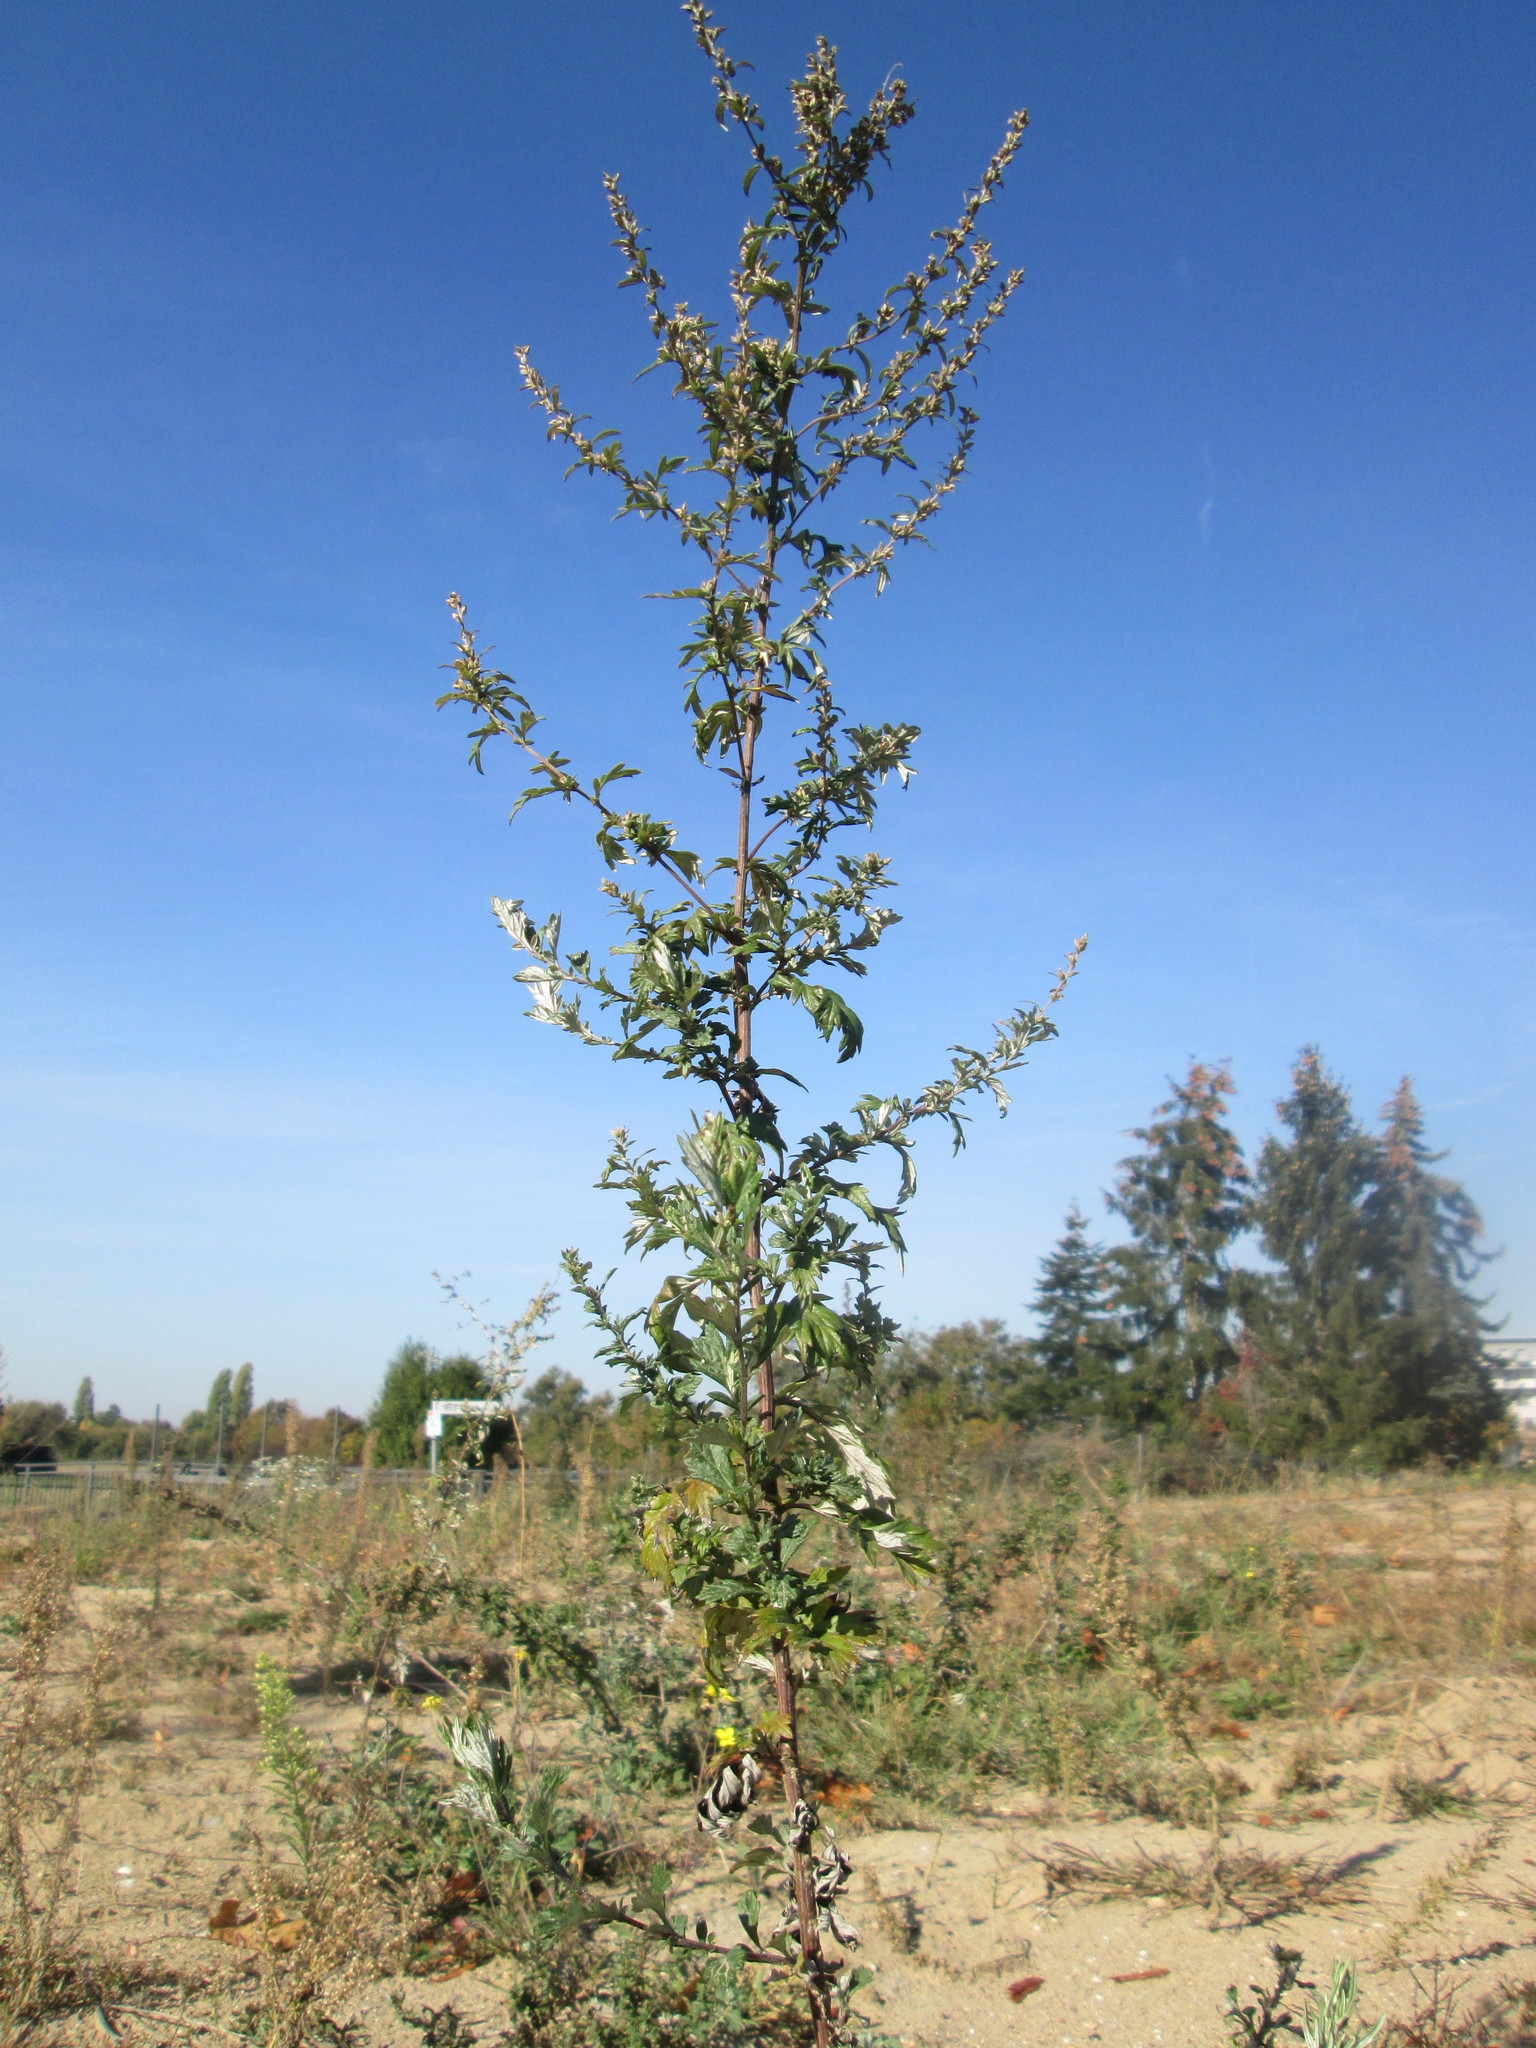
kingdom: Plantae
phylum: Tracheophyta
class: Magnoliopsida
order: Asterales
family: Asteraceae
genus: Artemisia
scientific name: Artemisia vulgaris
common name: Mugwort
